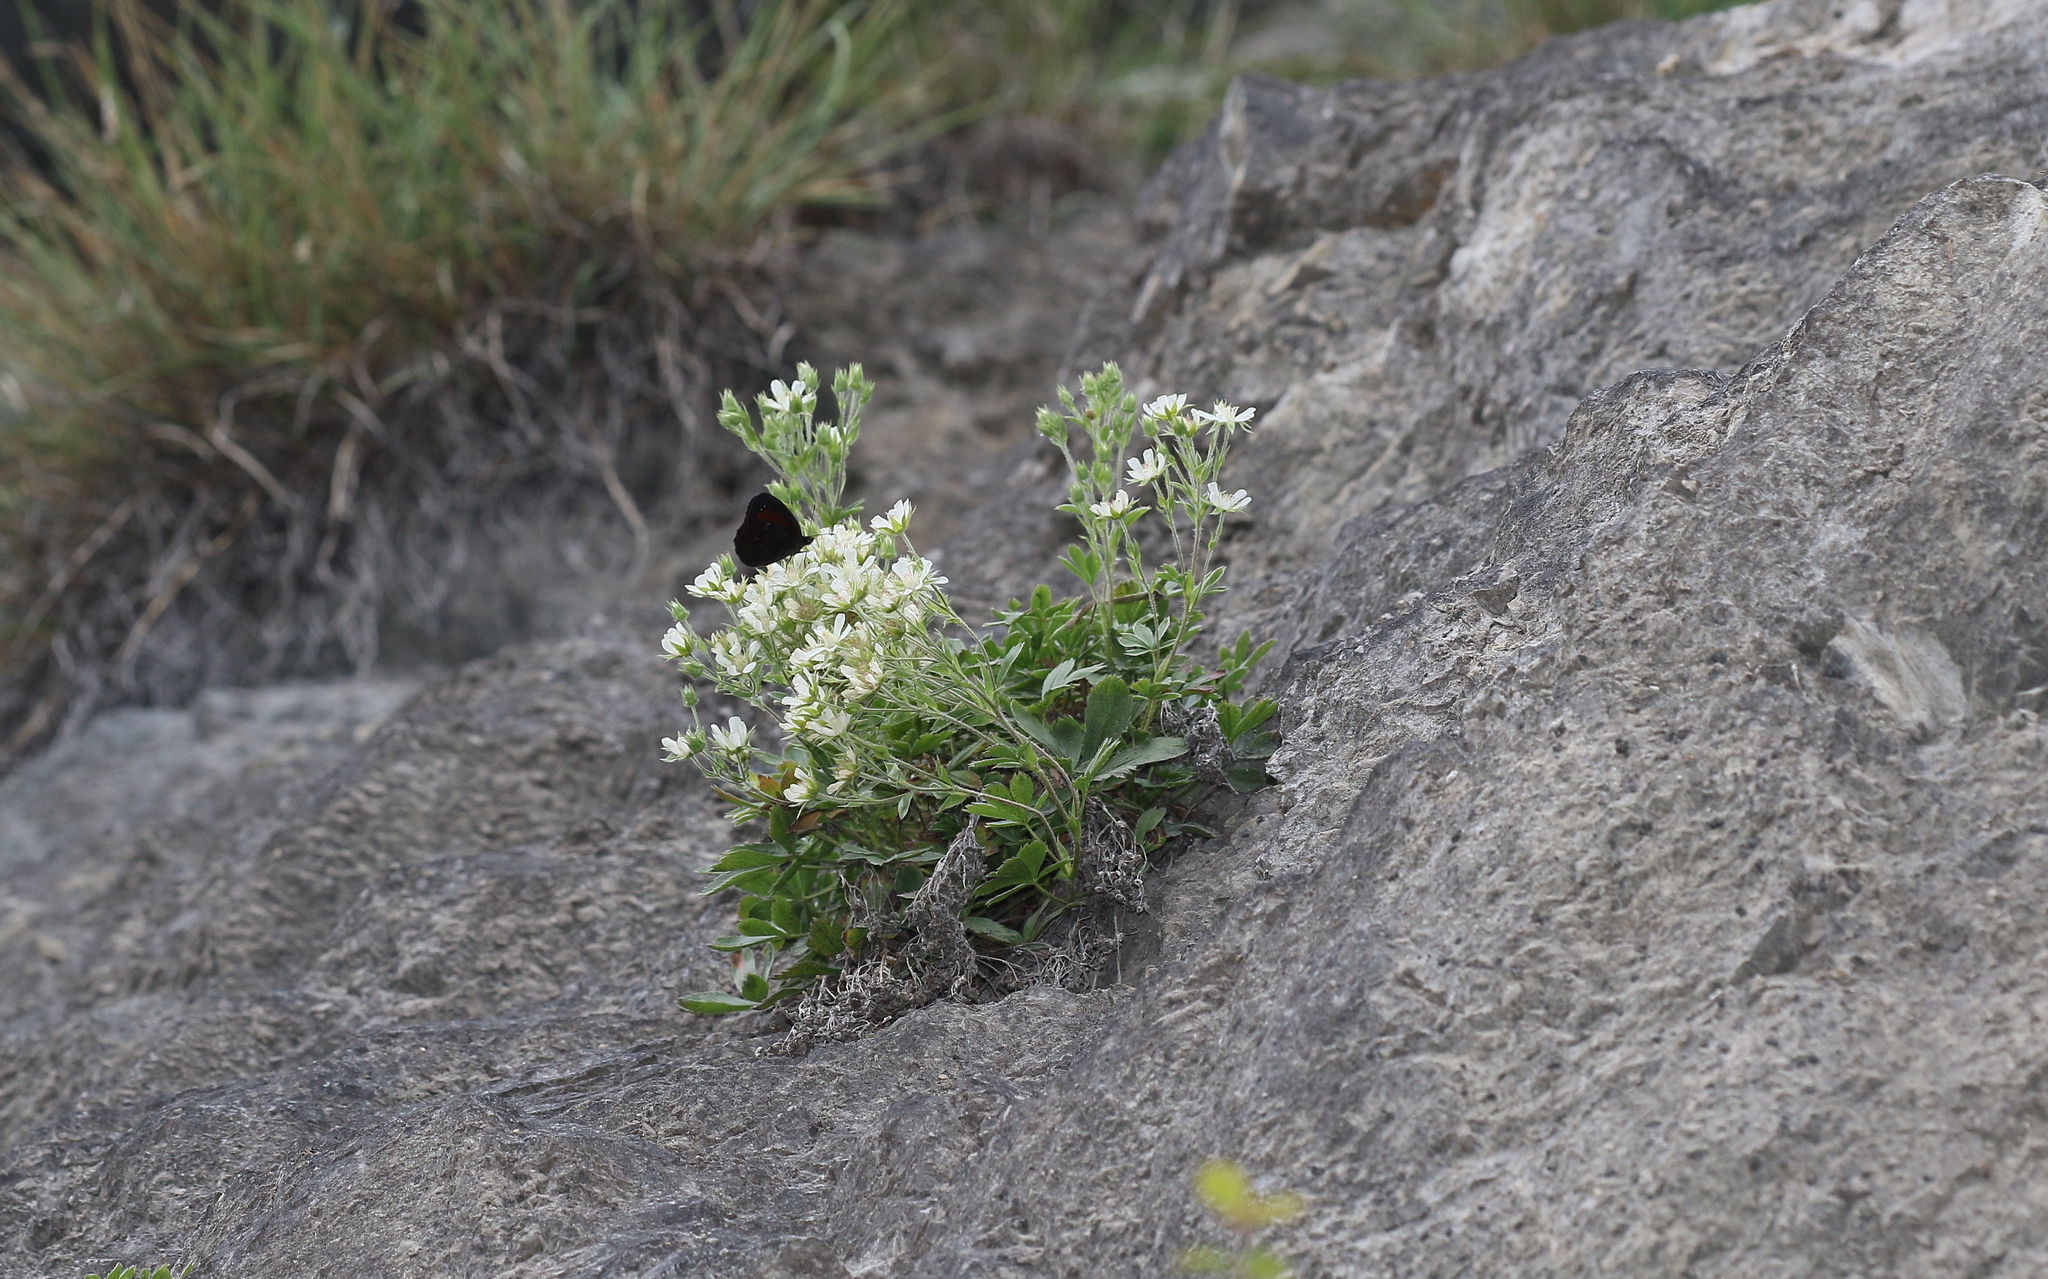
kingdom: Plantae
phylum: Tracheophyta
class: Magnoliopsida
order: Rosales
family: Rosaceae
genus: Potentilla
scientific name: Potentilla caulescens
